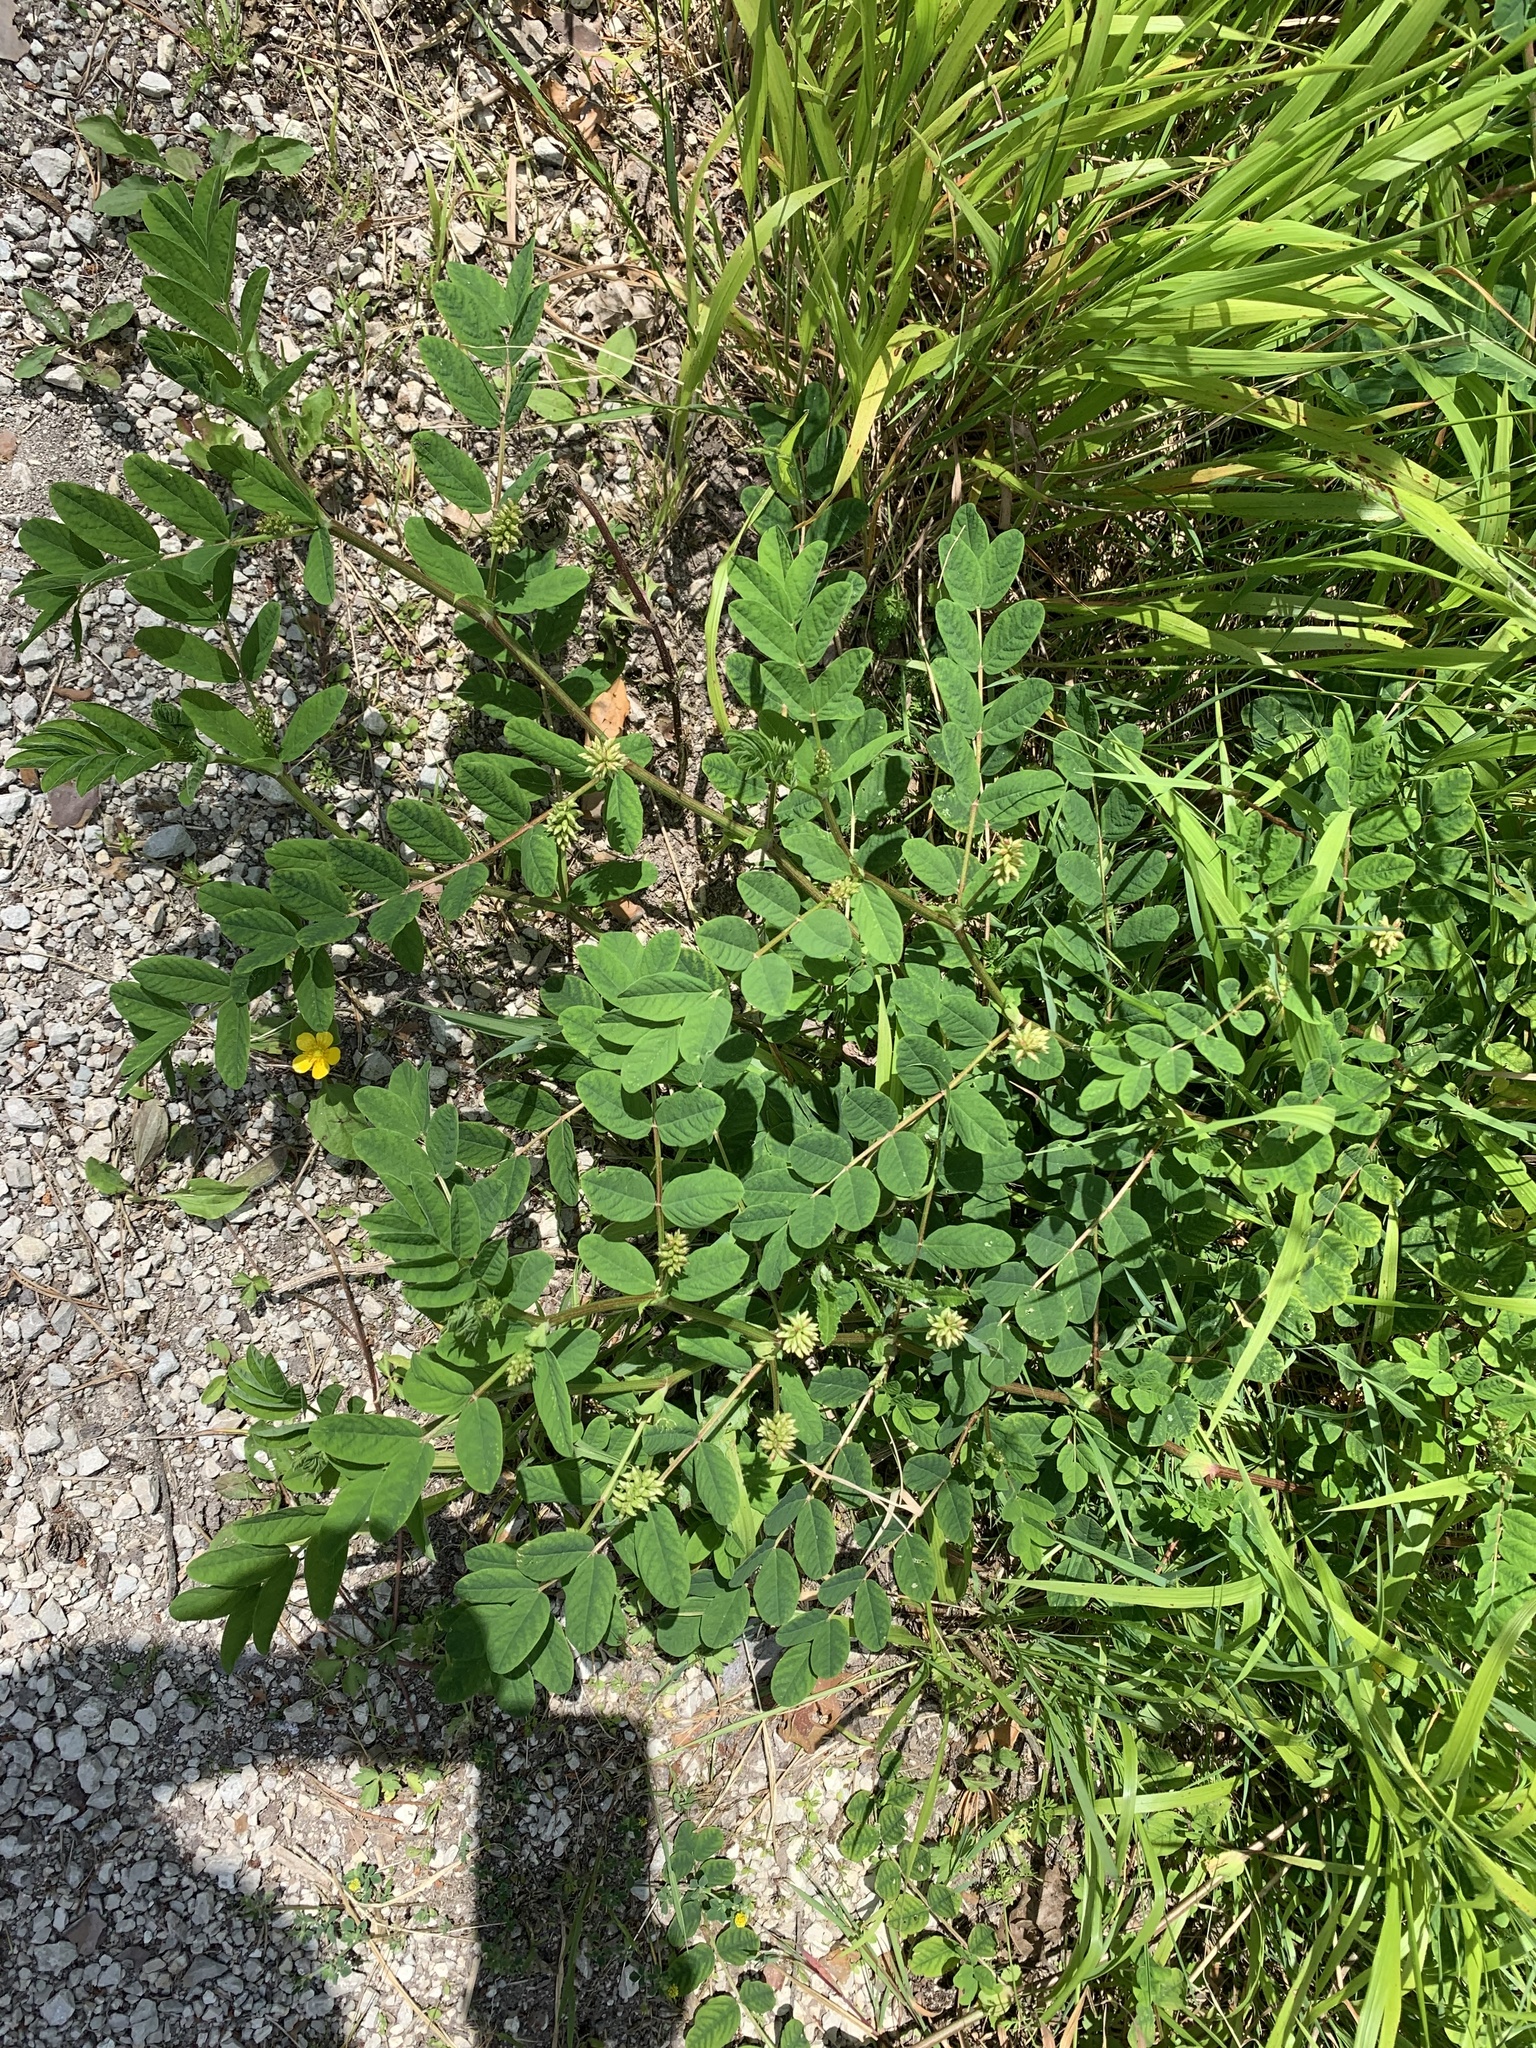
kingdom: Plantae
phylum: Tracheophyta
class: Magnoliopsida
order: Fabales
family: Fabaceae
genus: Astragalus
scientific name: Astragalus glycyphyllos
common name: Wild liquorice
